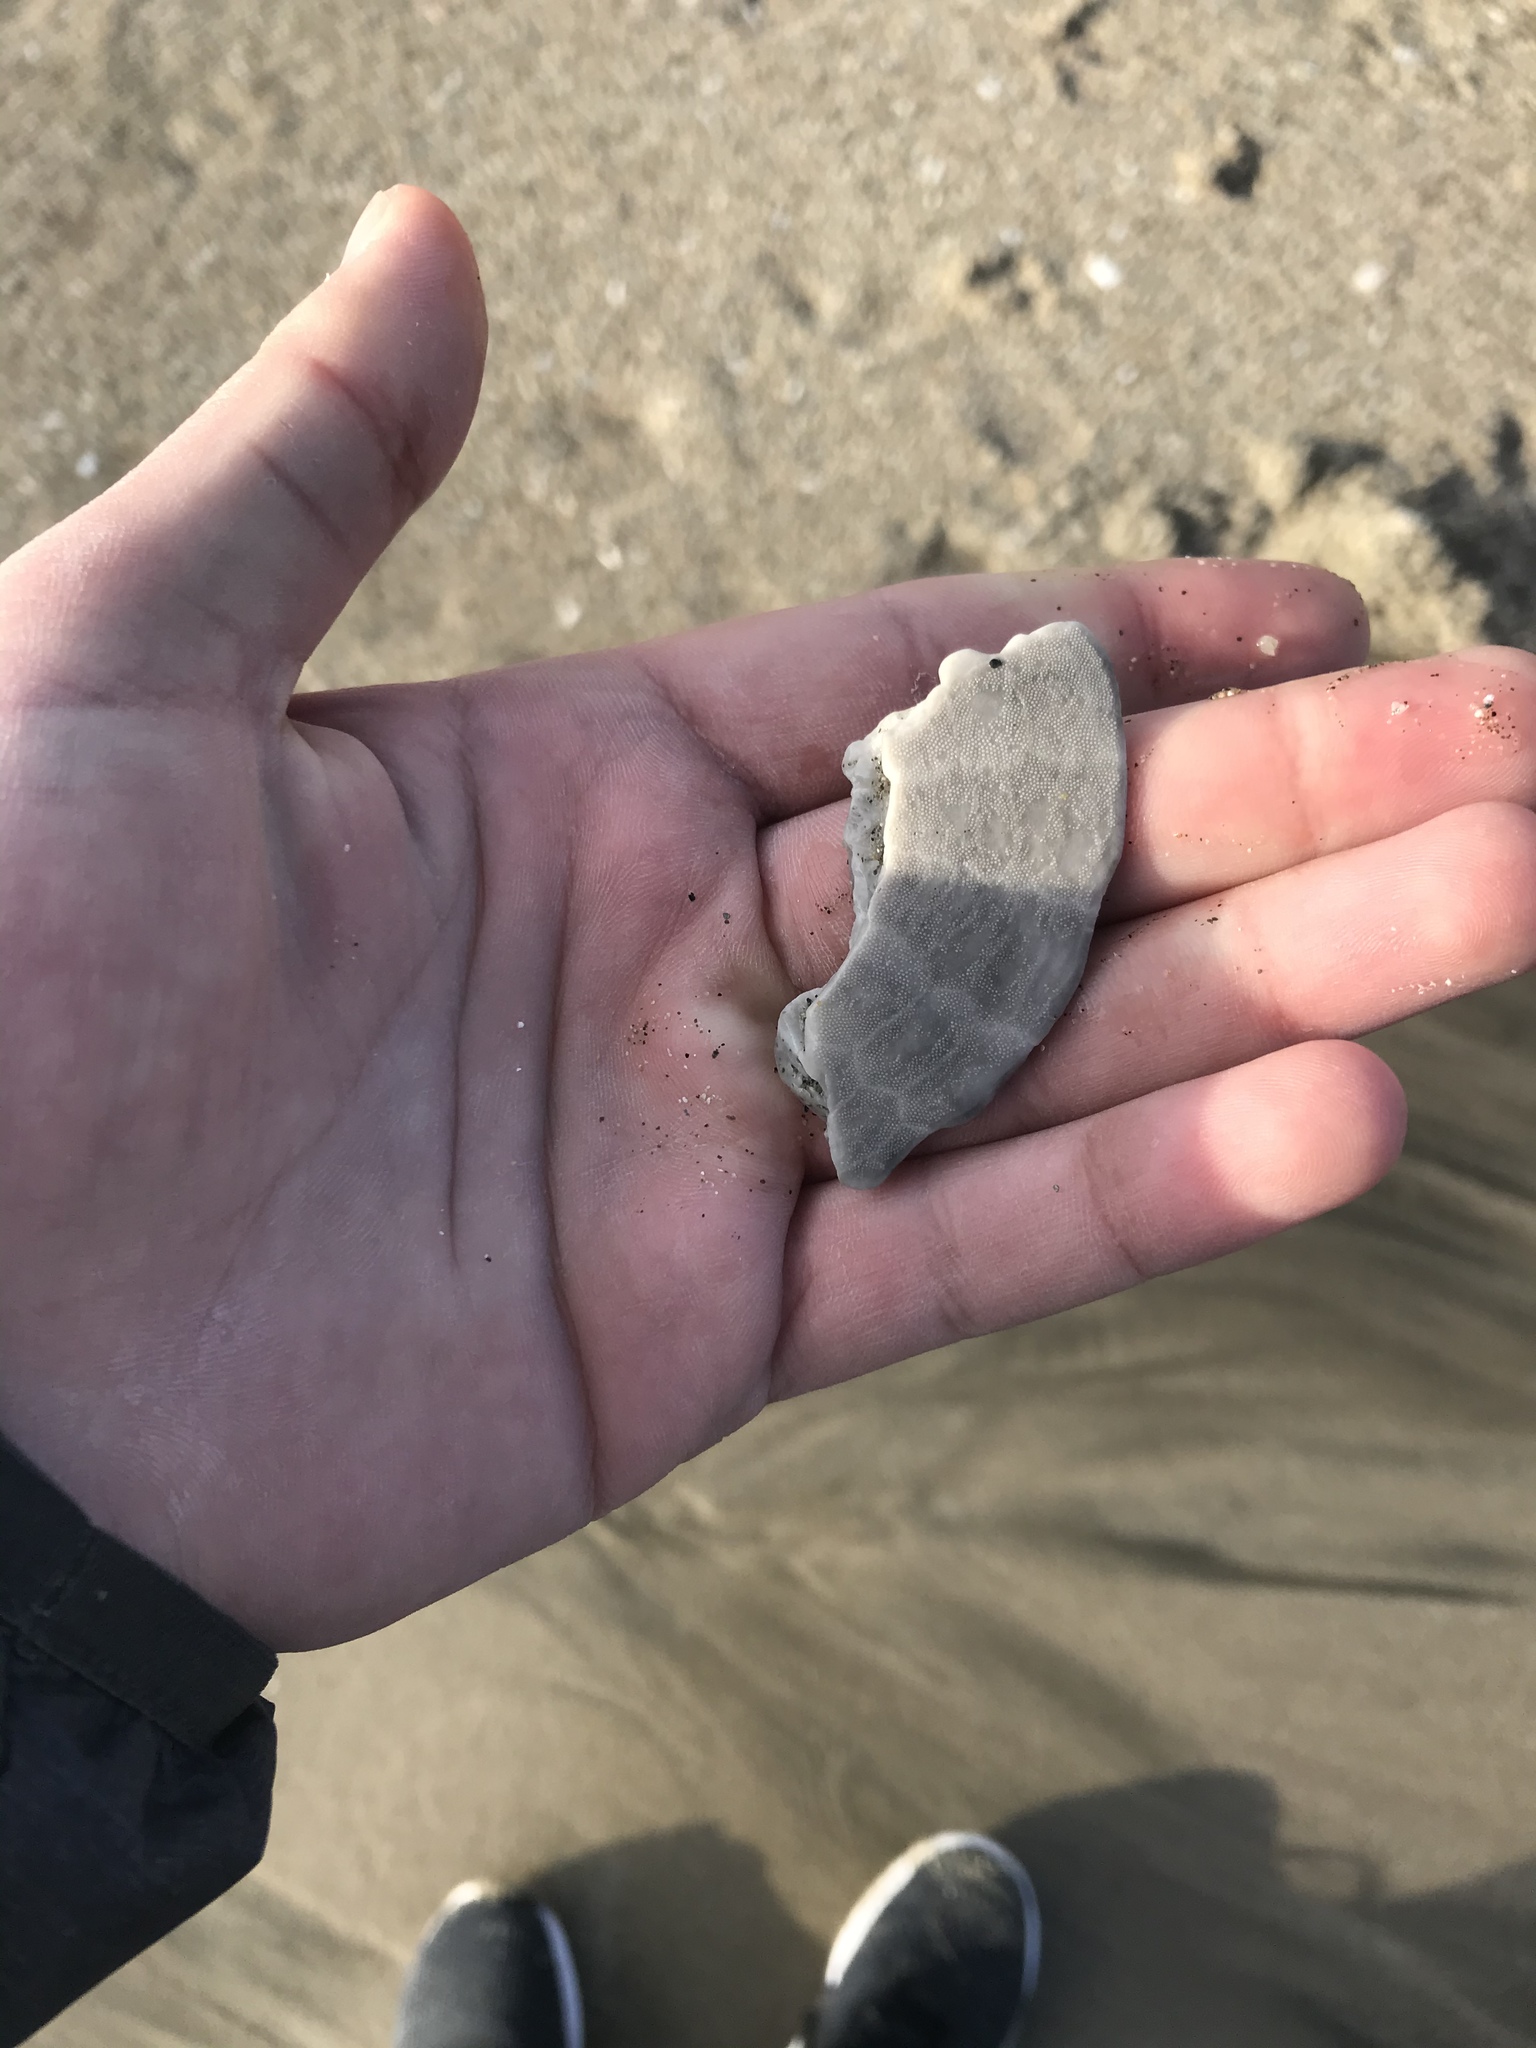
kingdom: Animalia
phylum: Echinodermata
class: Echinoidea
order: Echinolampadacea
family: Dendrasteridae
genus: Dendraster
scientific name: Dendraster excentricus
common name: Eccentric sand dollar sea urchin
